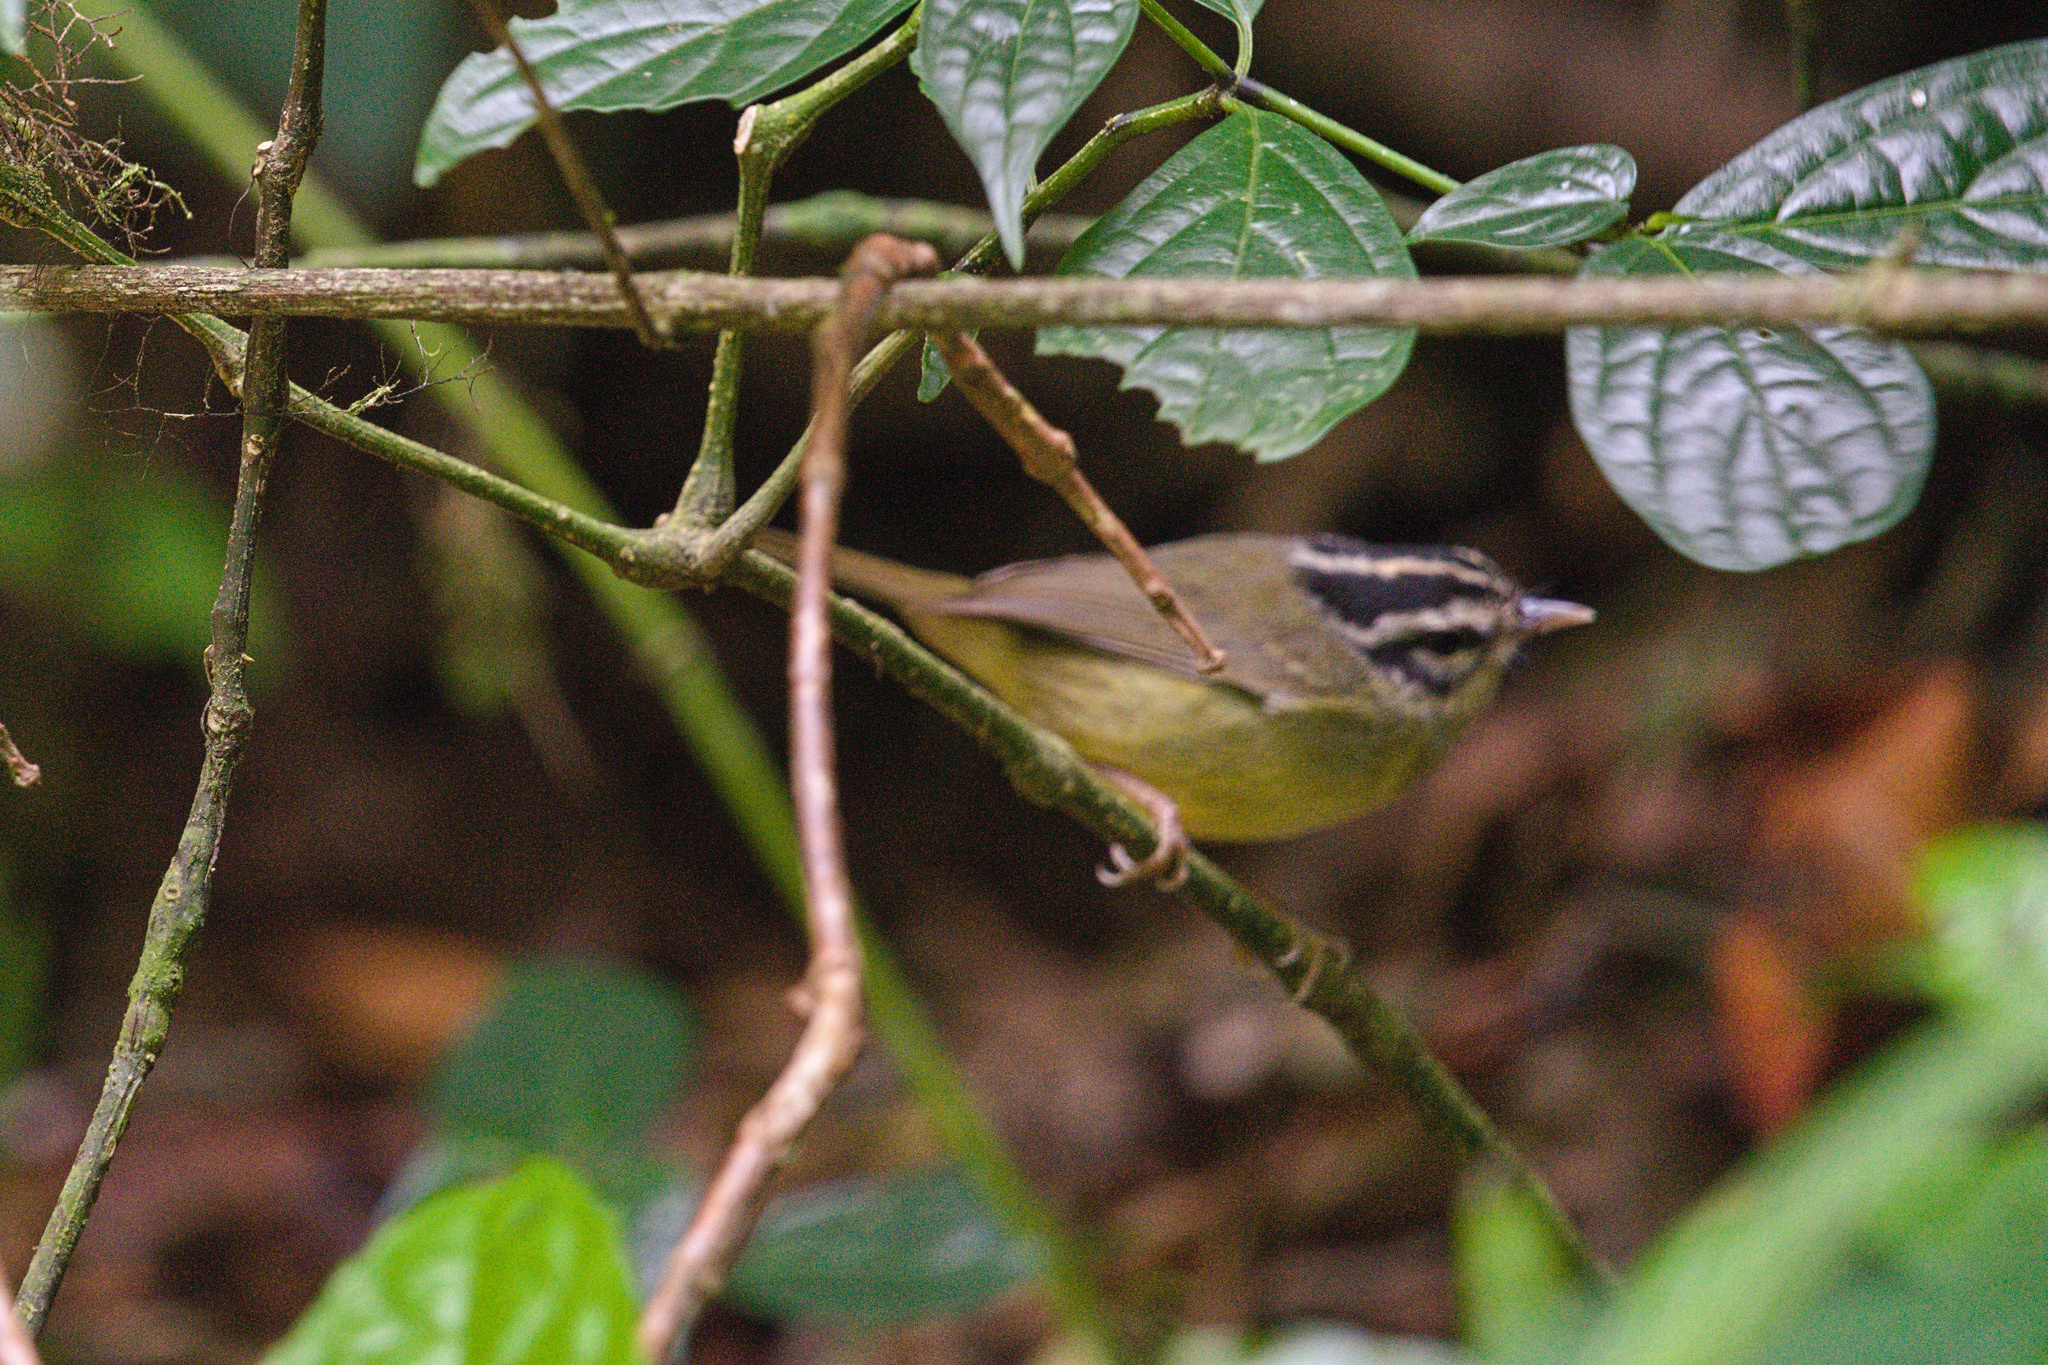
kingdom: Animalia
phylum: Chordata
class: Aves
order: Passeriformes
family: Parulidae
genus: Basileuterus
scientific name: Basileuterus melanotis
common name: Black-eared warbler
